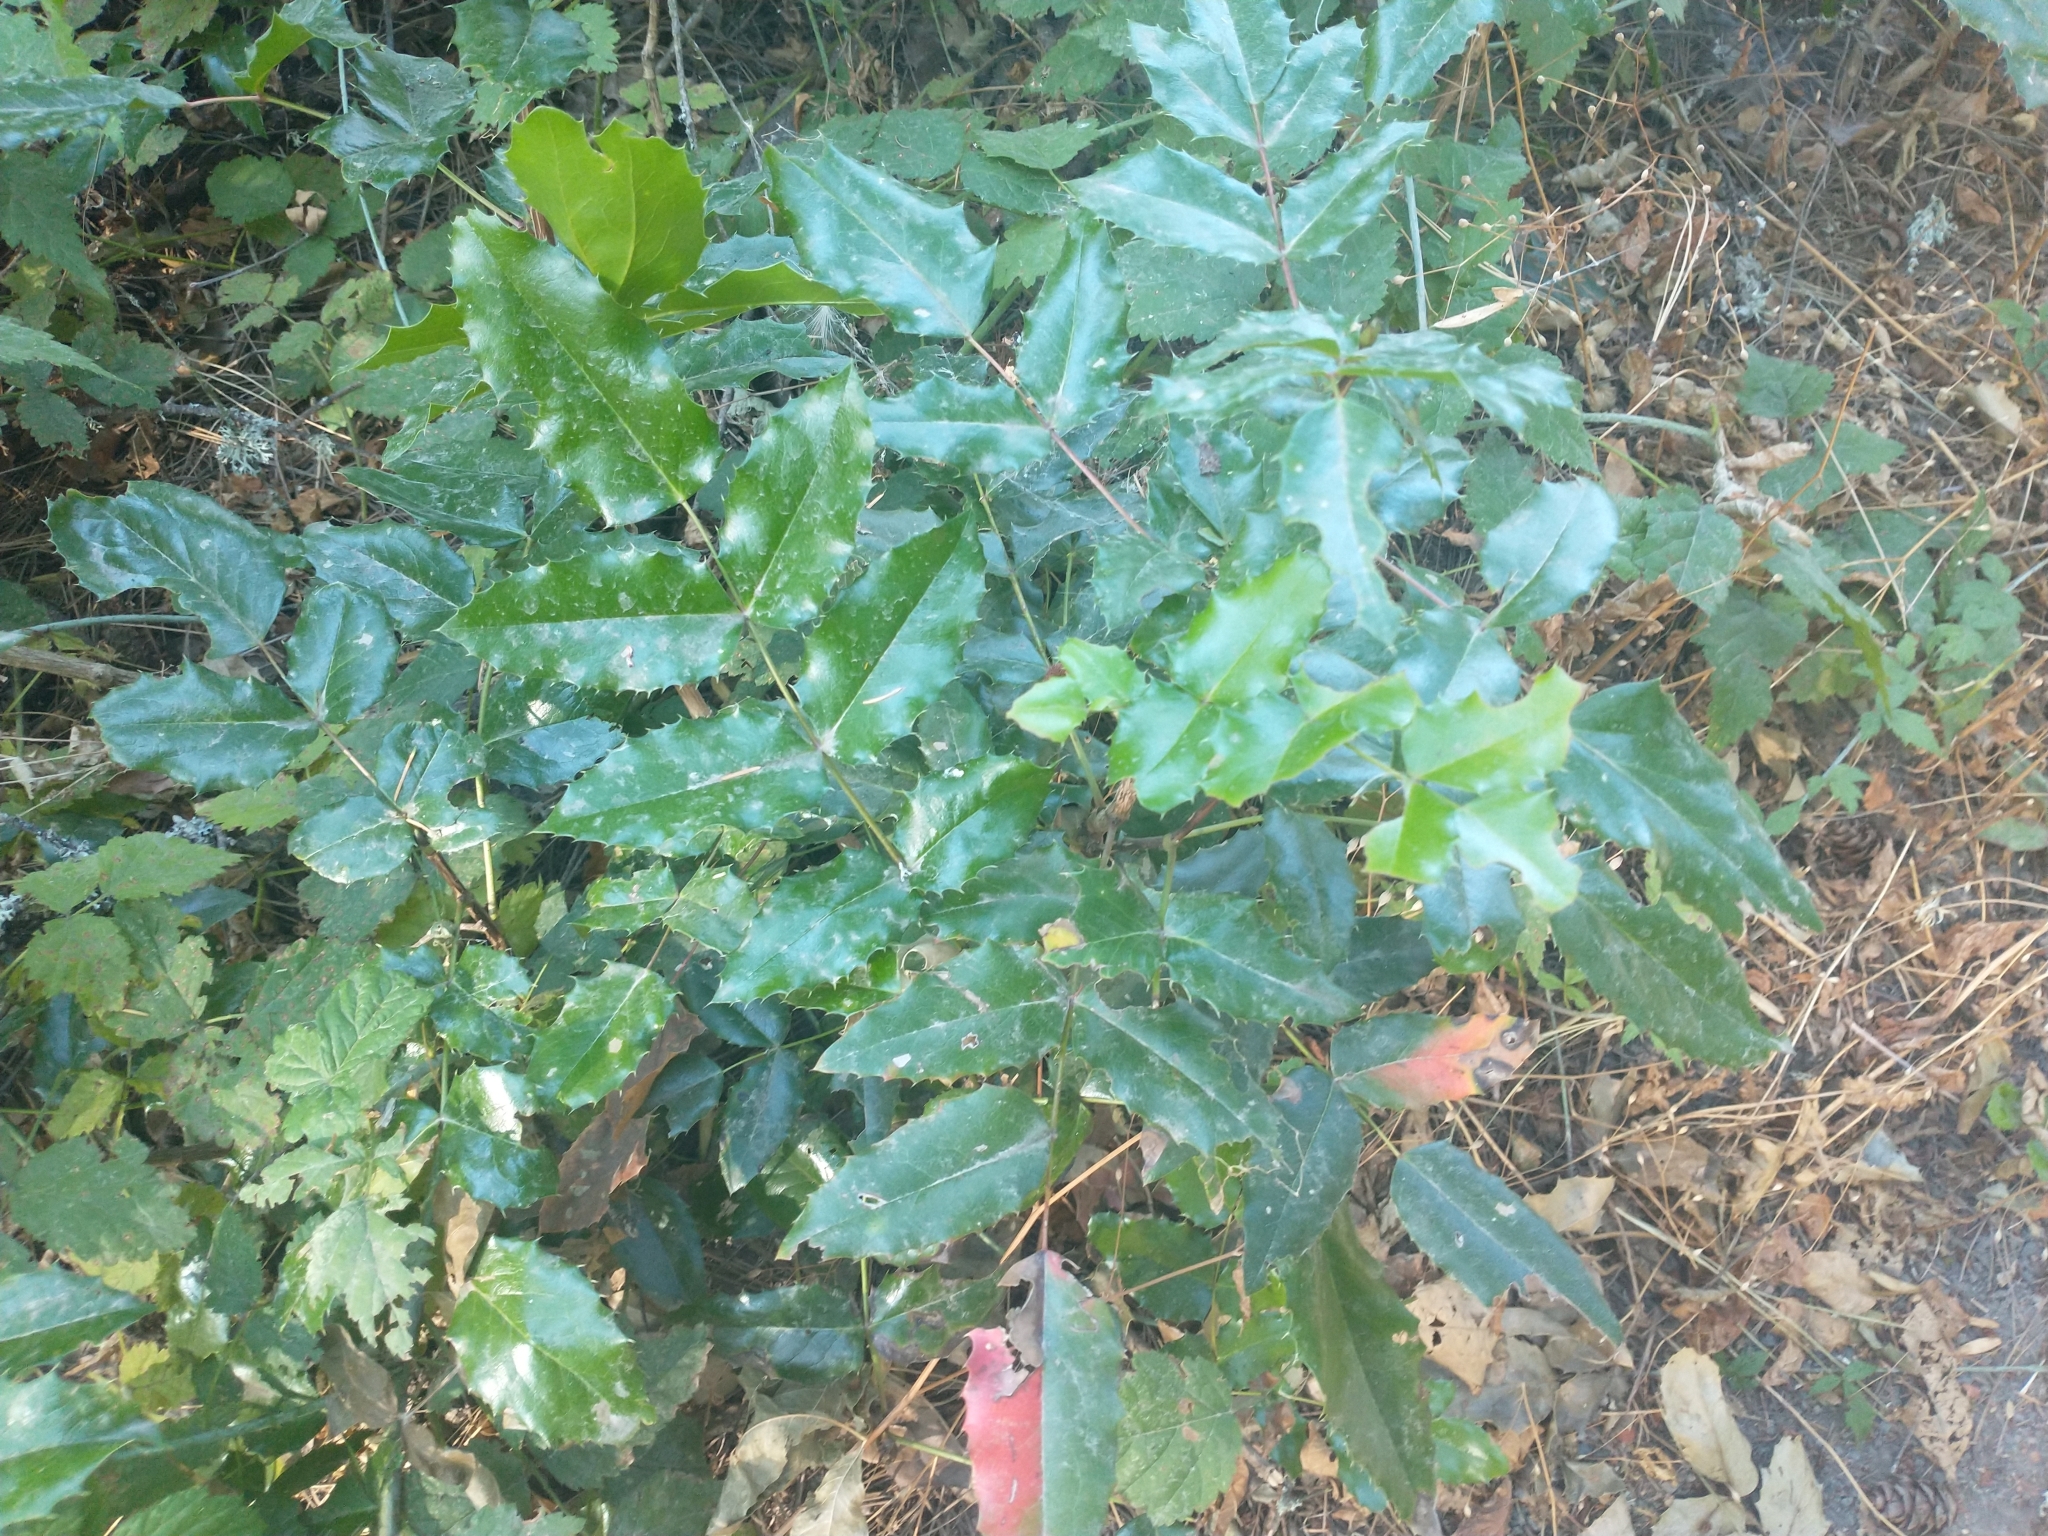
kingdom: Plantae
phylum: Tracheophyta
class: Magnoliopsida
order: Ranunculales
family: Berberidaceae
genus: Mahonia
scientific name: Mahonia aquifolium
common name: Oregon-grape
